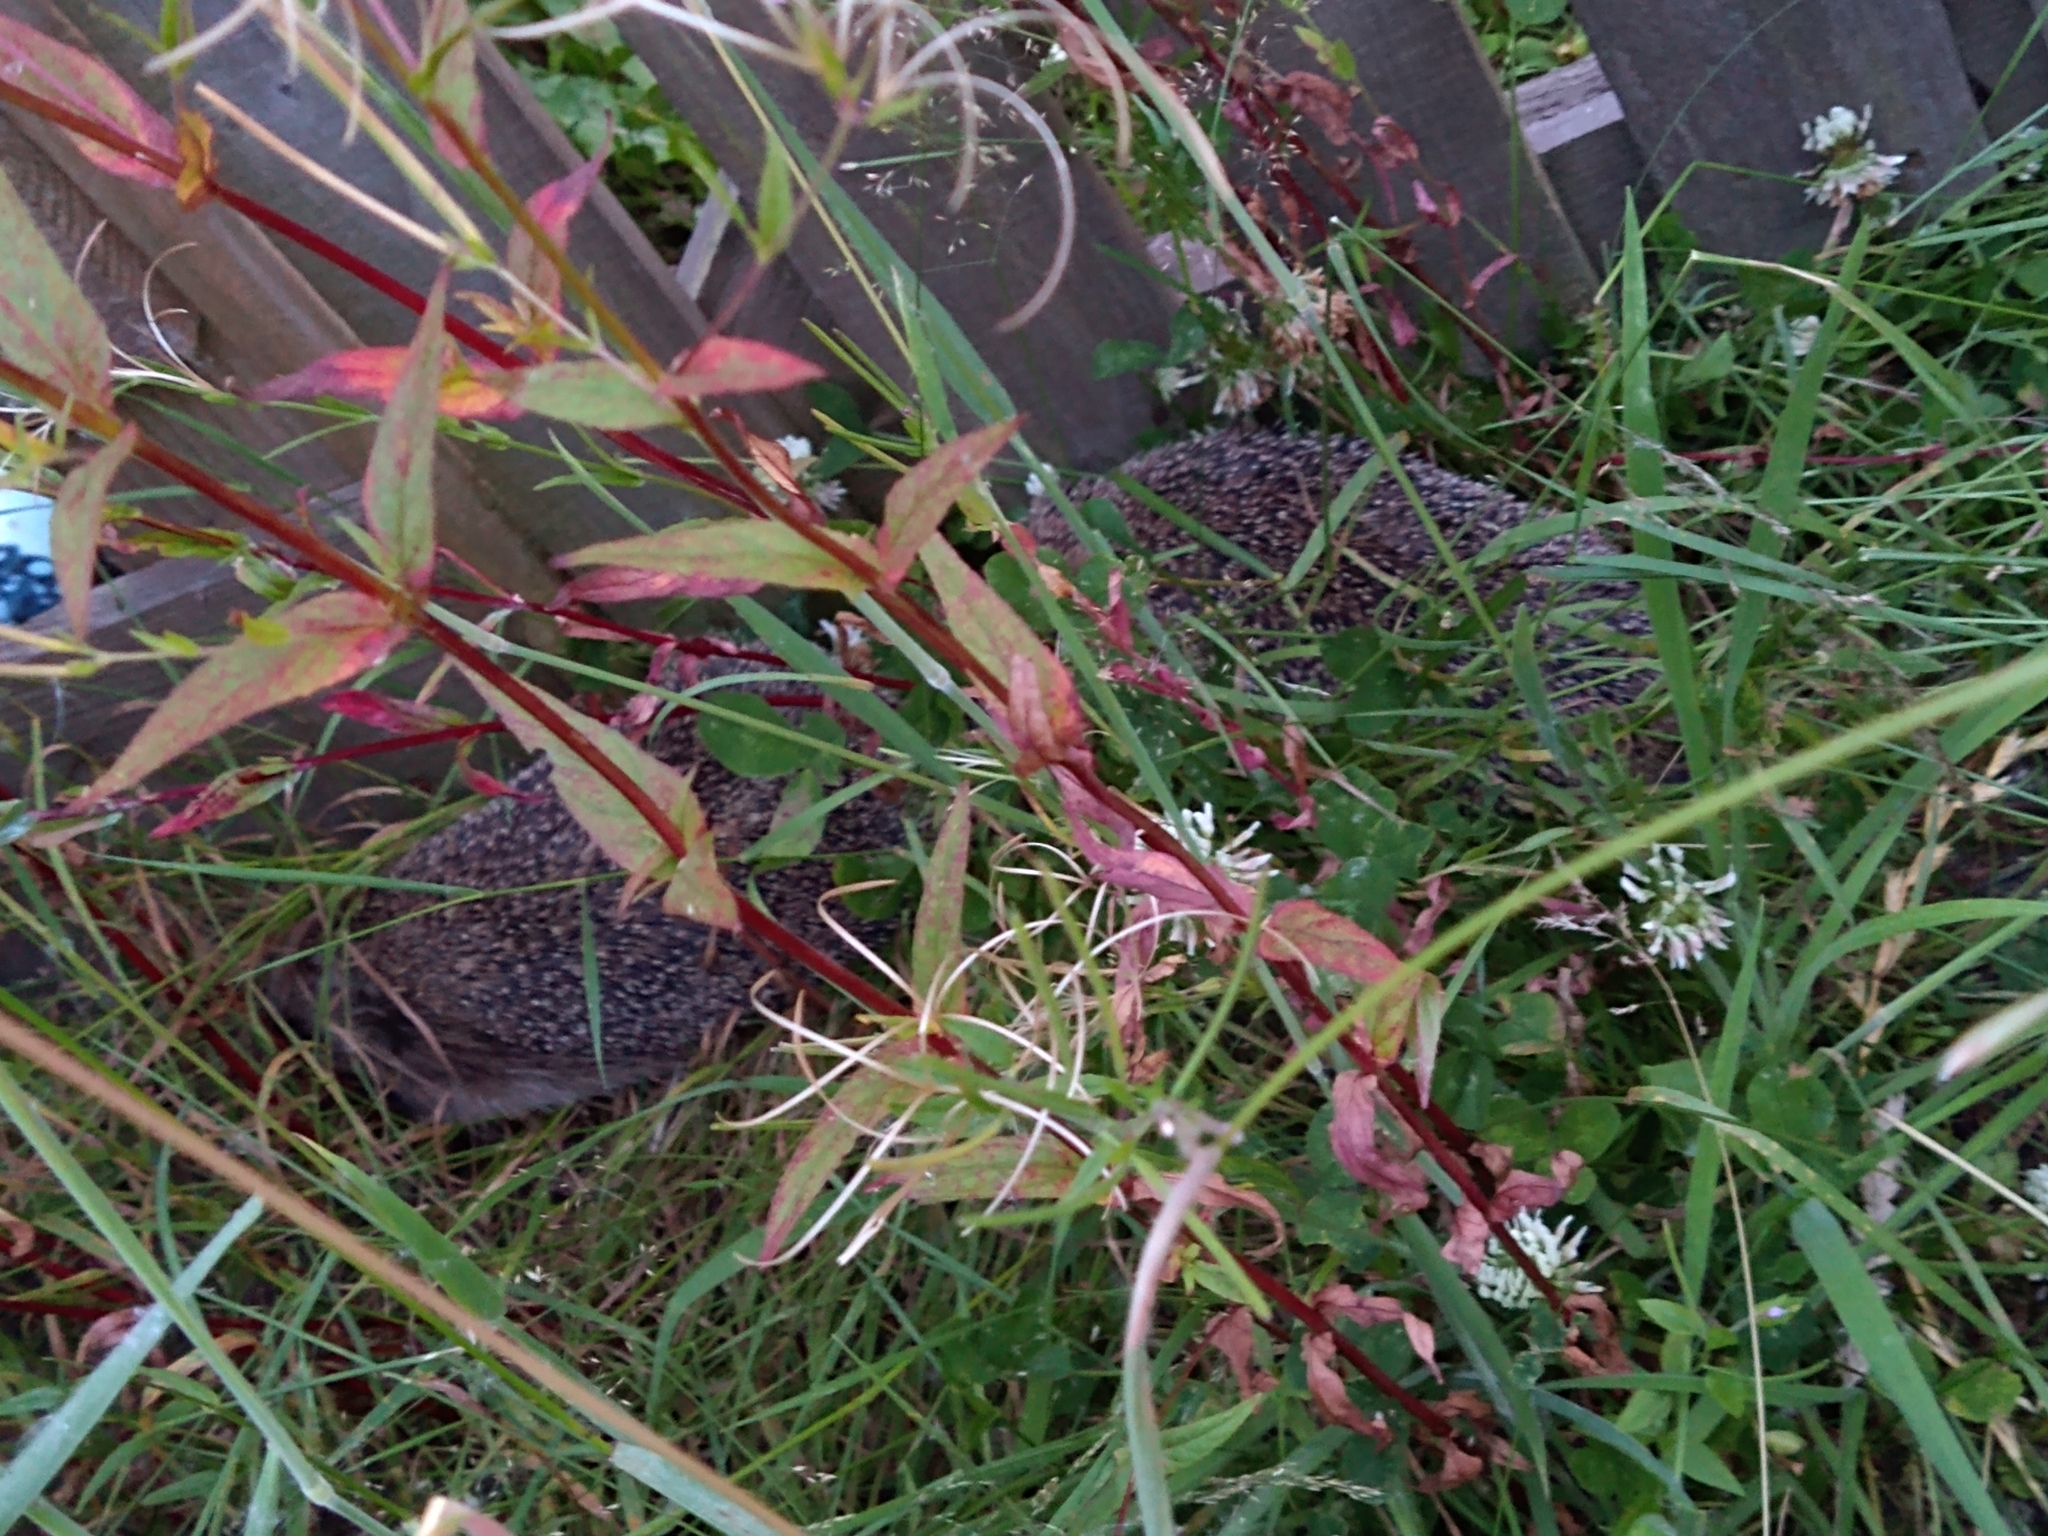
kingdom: Animalia
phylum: Chordata
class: Mammalia
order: Erinaceomorpha
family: Erinaceidae
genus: Erinaceus
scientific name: Erinaceus europaeus
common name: West european hedgehog
